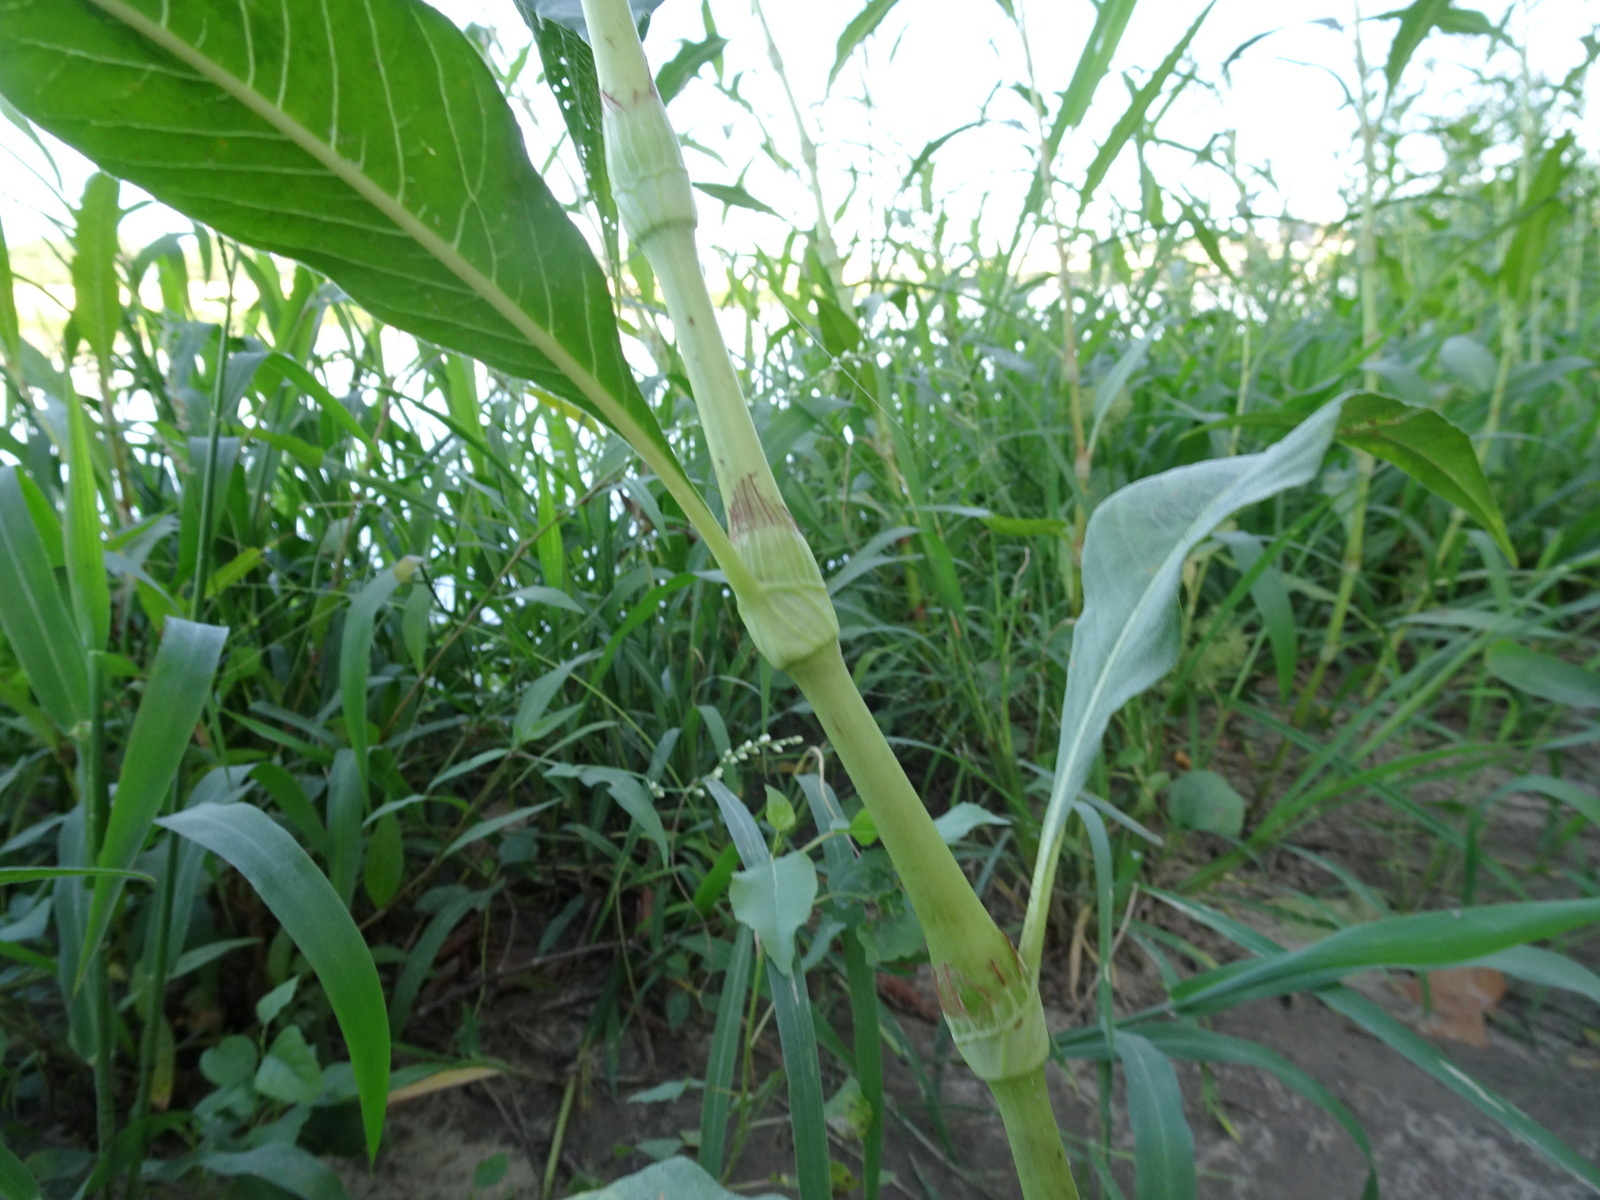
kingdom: Plantae
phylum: Tracheophyta
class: Magnoliopsida
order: Caryophyllales
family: Polygonaceae
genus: Persicaria
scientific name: Persicaria lapathifolia
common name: Curlytop knotweed
